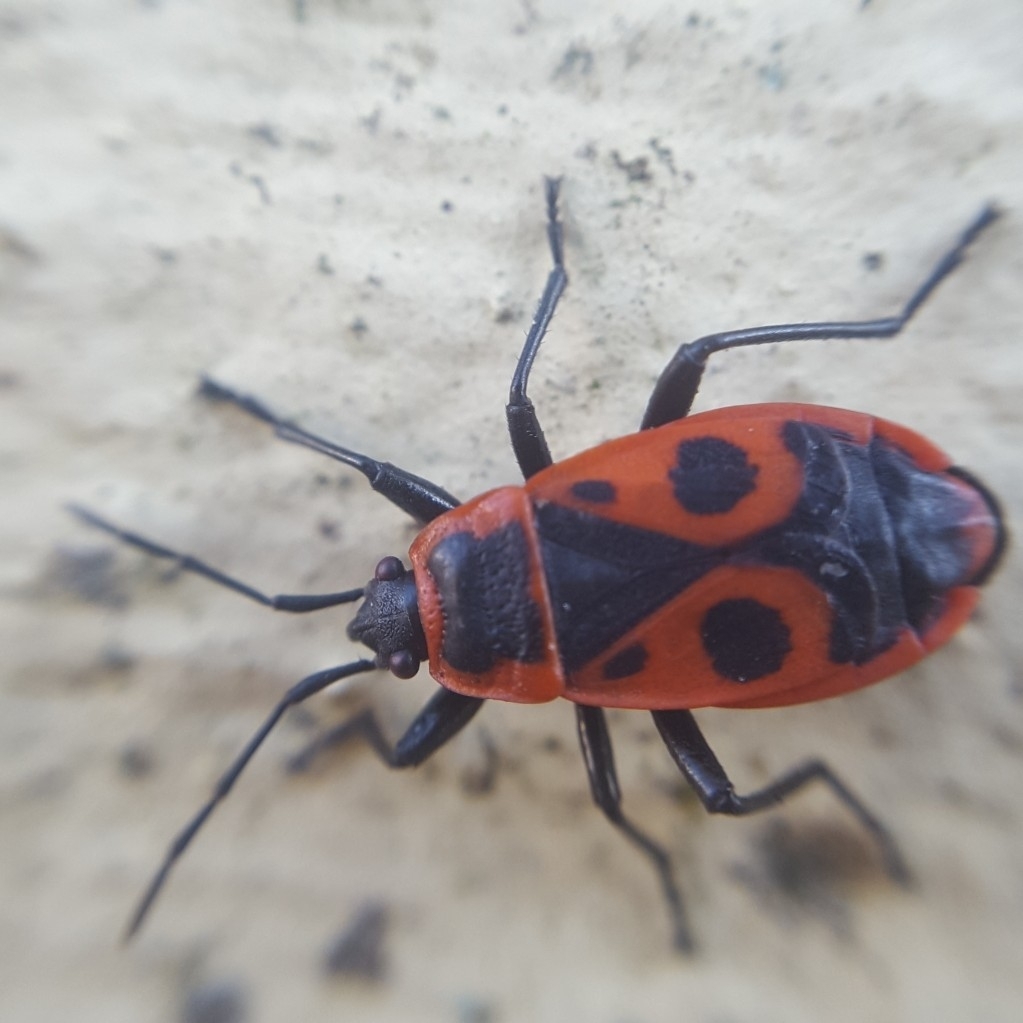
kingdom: Animalia
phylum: Arthropoda
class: Insecta
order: Hemiptera
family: Pyrrhocoridae
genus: Pyrrhocoris
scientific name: Pyrrhocoris apterus
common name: Firebug
